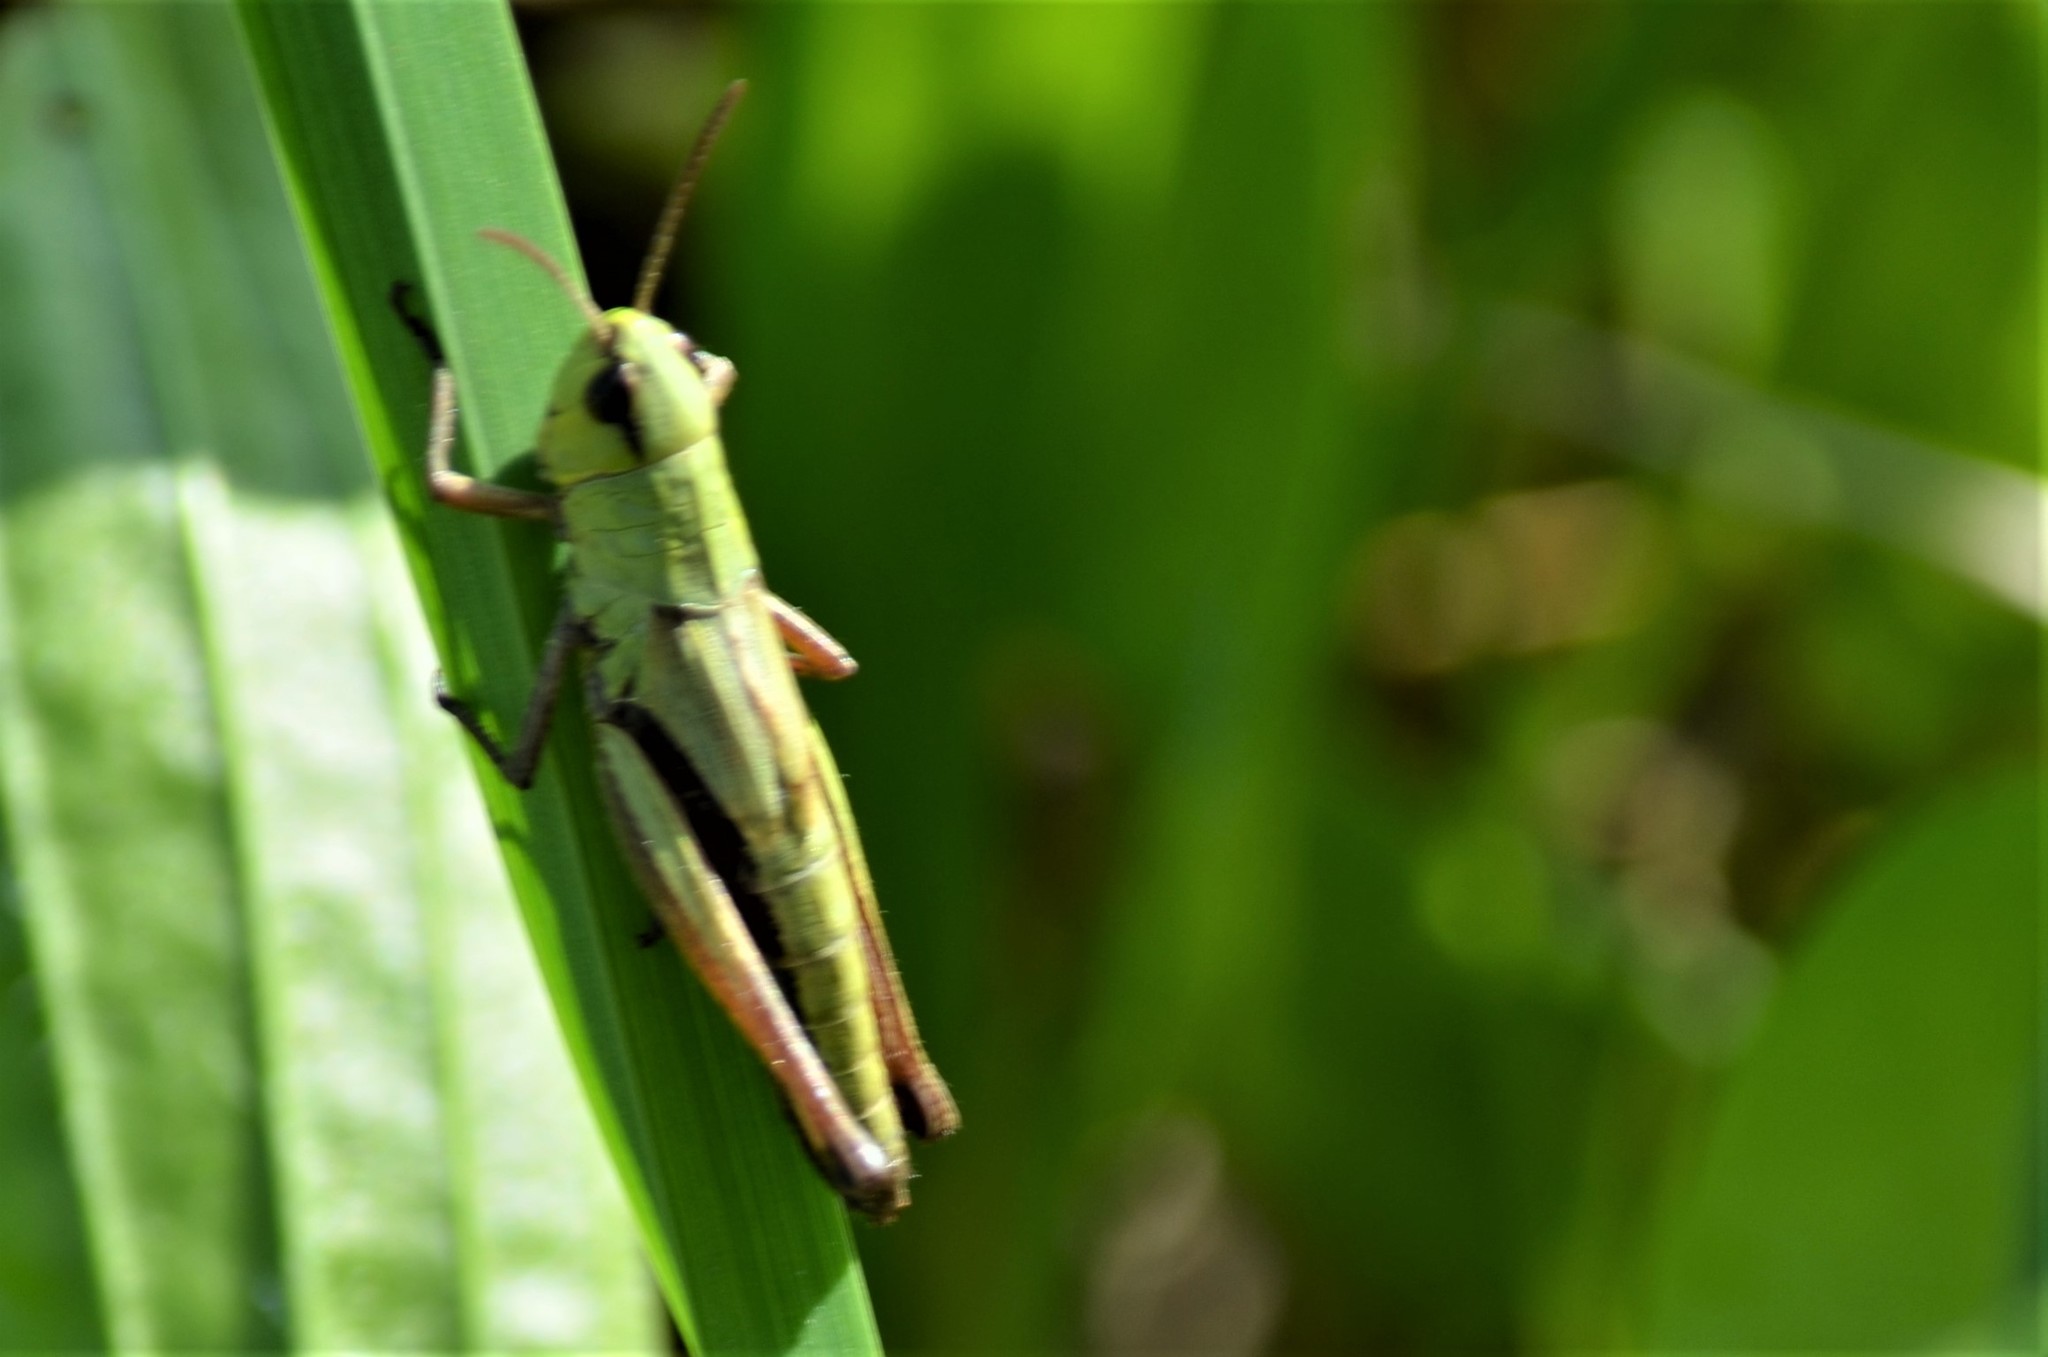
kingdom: Animalia
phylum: Arthropoda
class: Insecta
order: Orthoptera
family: Acrididae
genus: Pseudochorthippus
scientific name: Pseudochorthippus parallelus
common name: Meadow grasshopper
